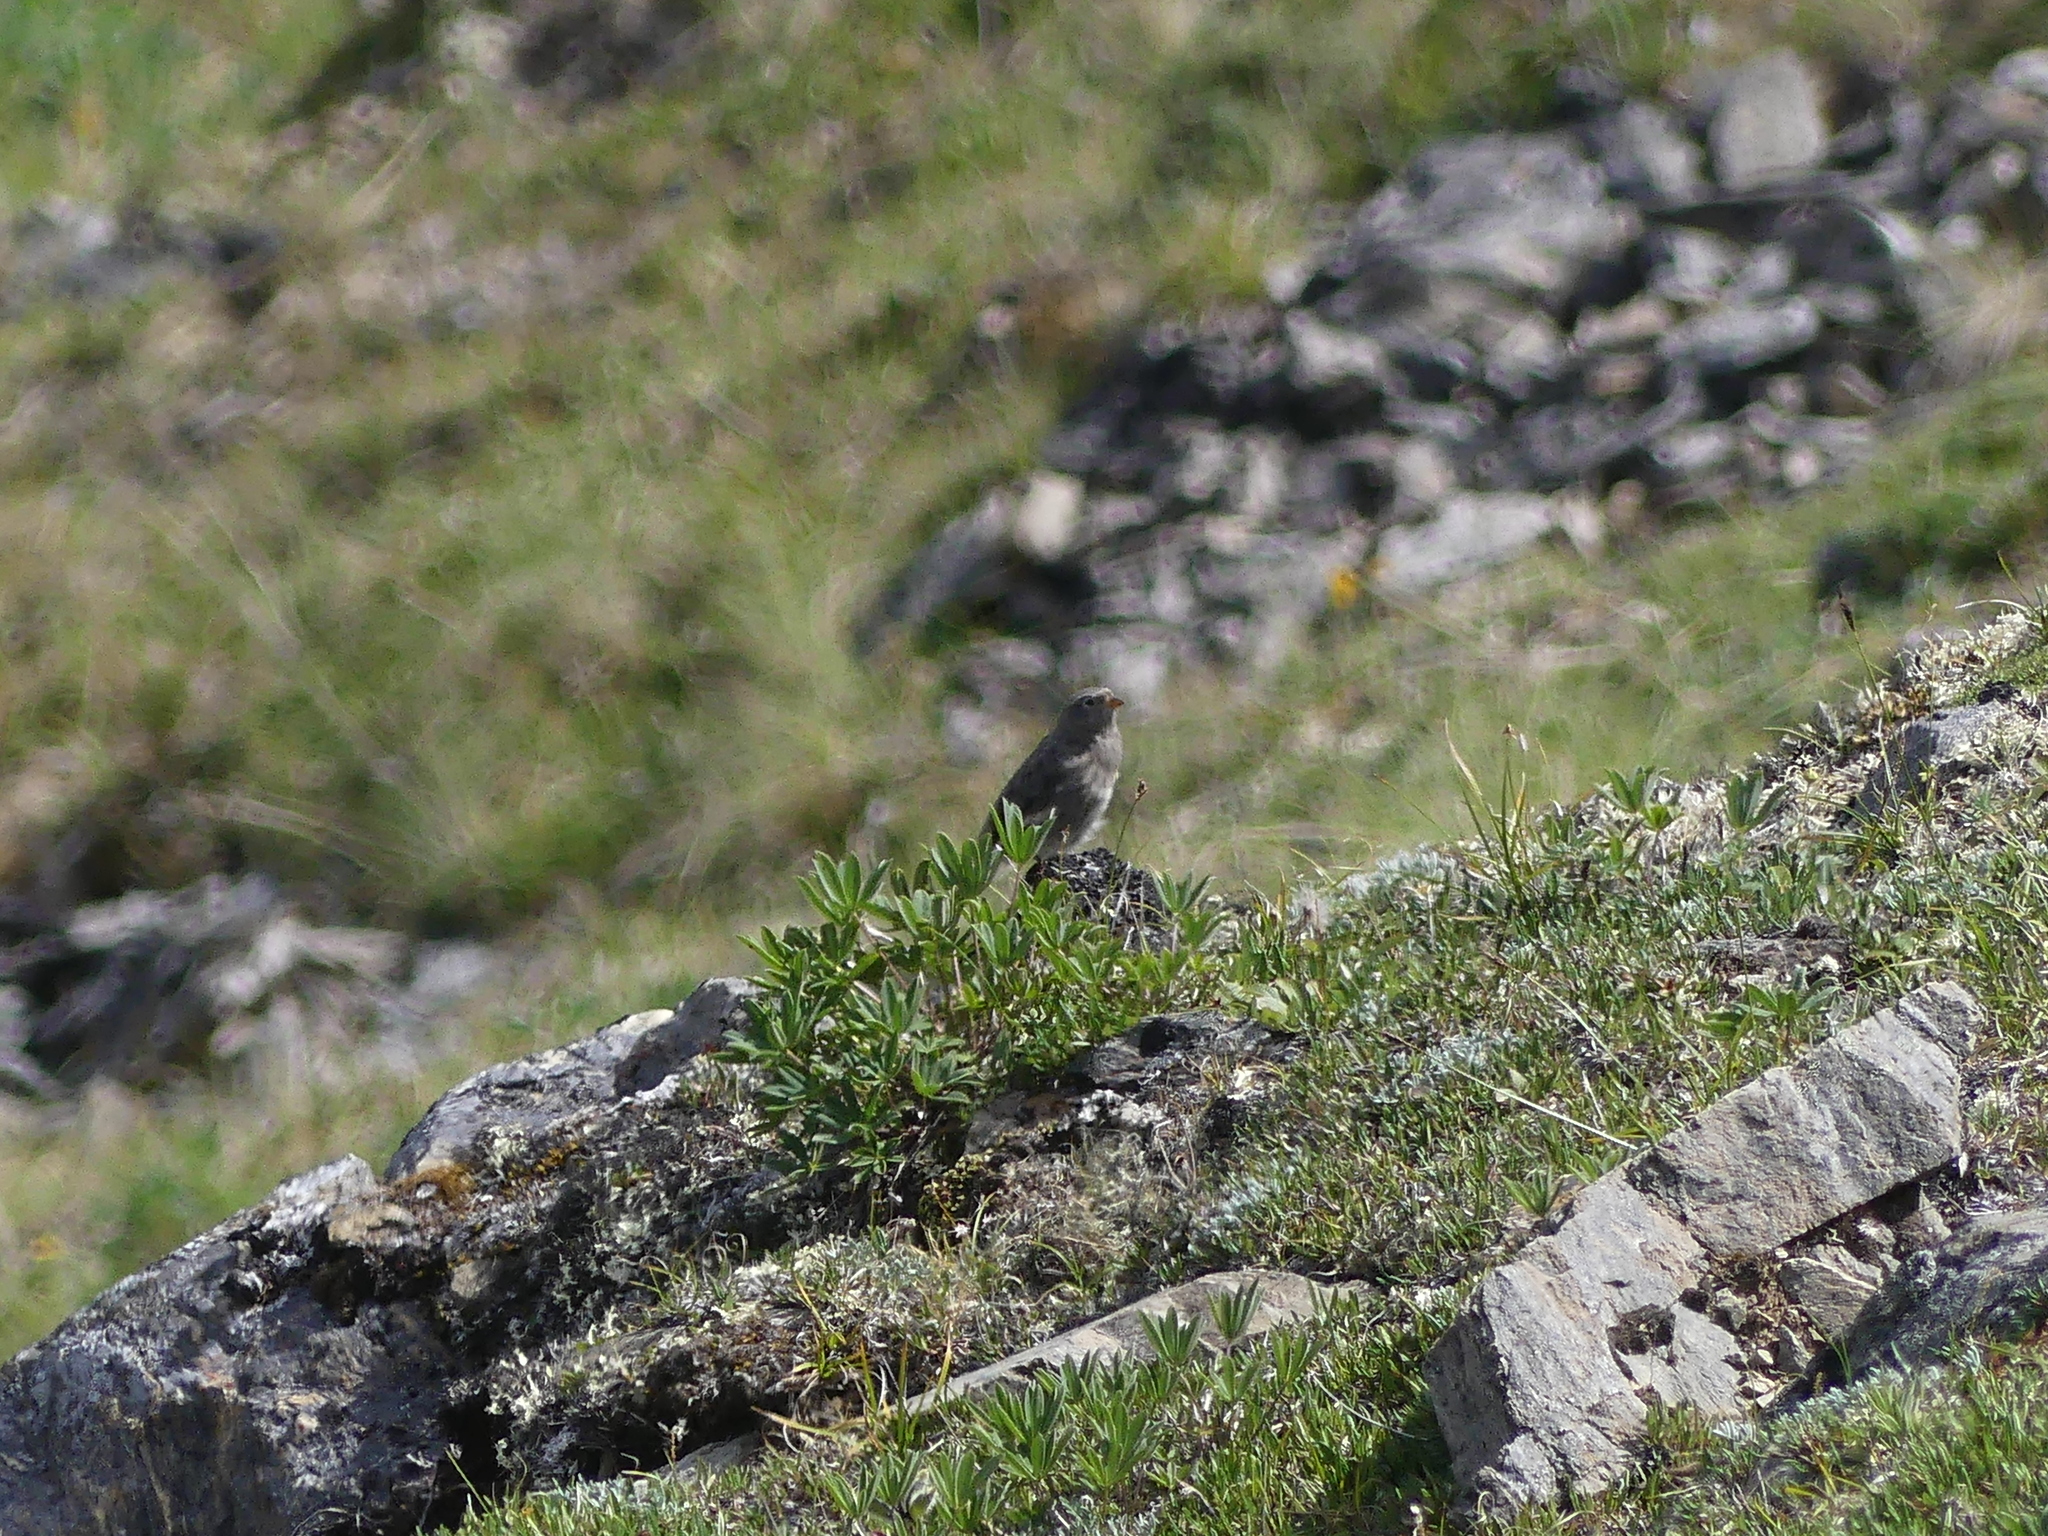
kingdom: Animalia
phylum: Chordata
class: Aves
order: Passeriformes
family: Fringillidae
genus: Leucosticte
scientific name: Leucosticte tephrocotis
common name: Gray-crowned rosy-finch
